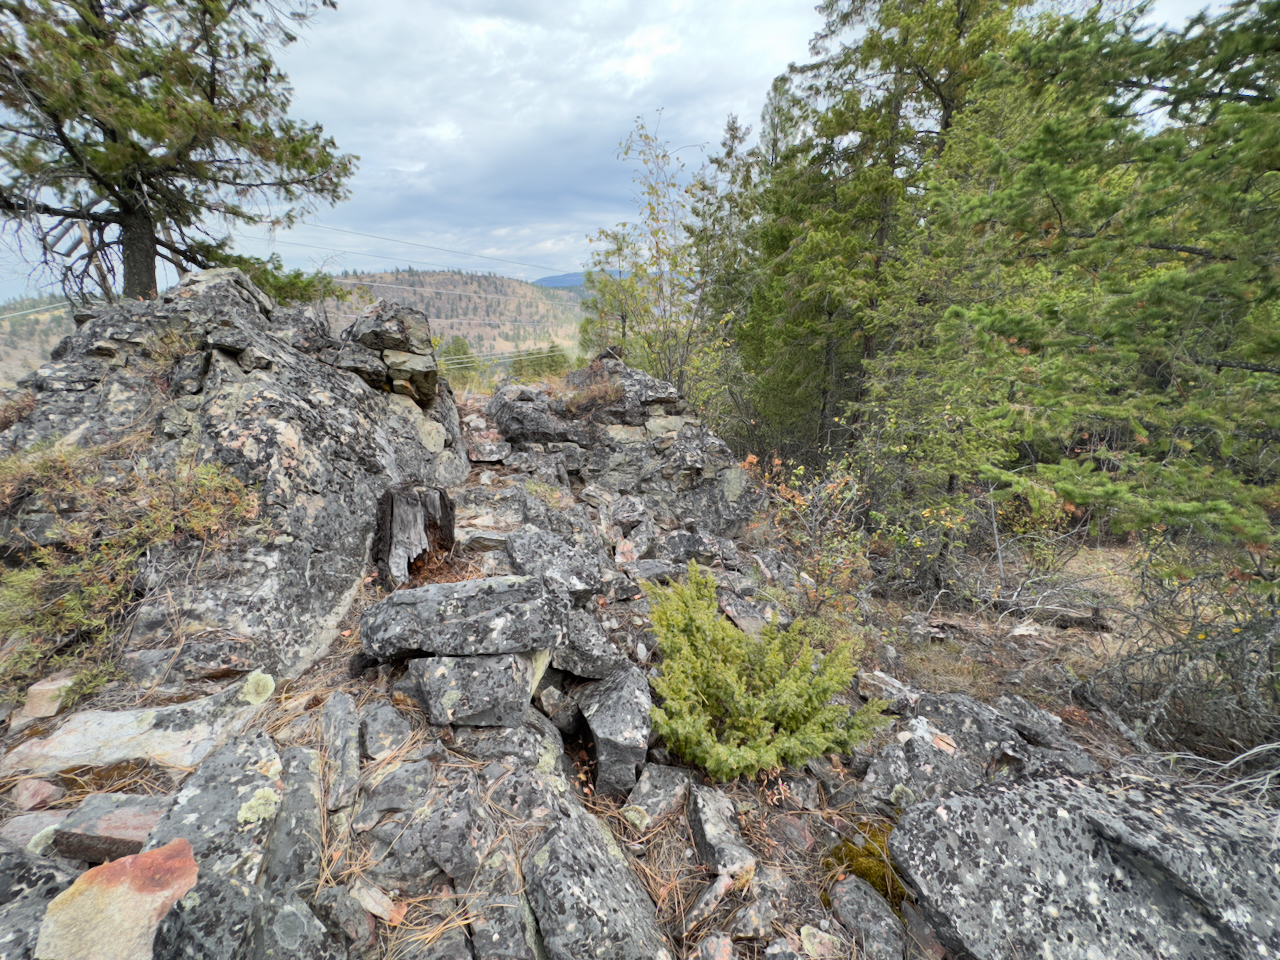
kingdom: Plantae
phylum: Tracheophyta
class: Pinopsida
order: Pinales
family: Cupressaceae
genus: Juniperus
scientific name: Juniperus communis
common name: Common juniper
